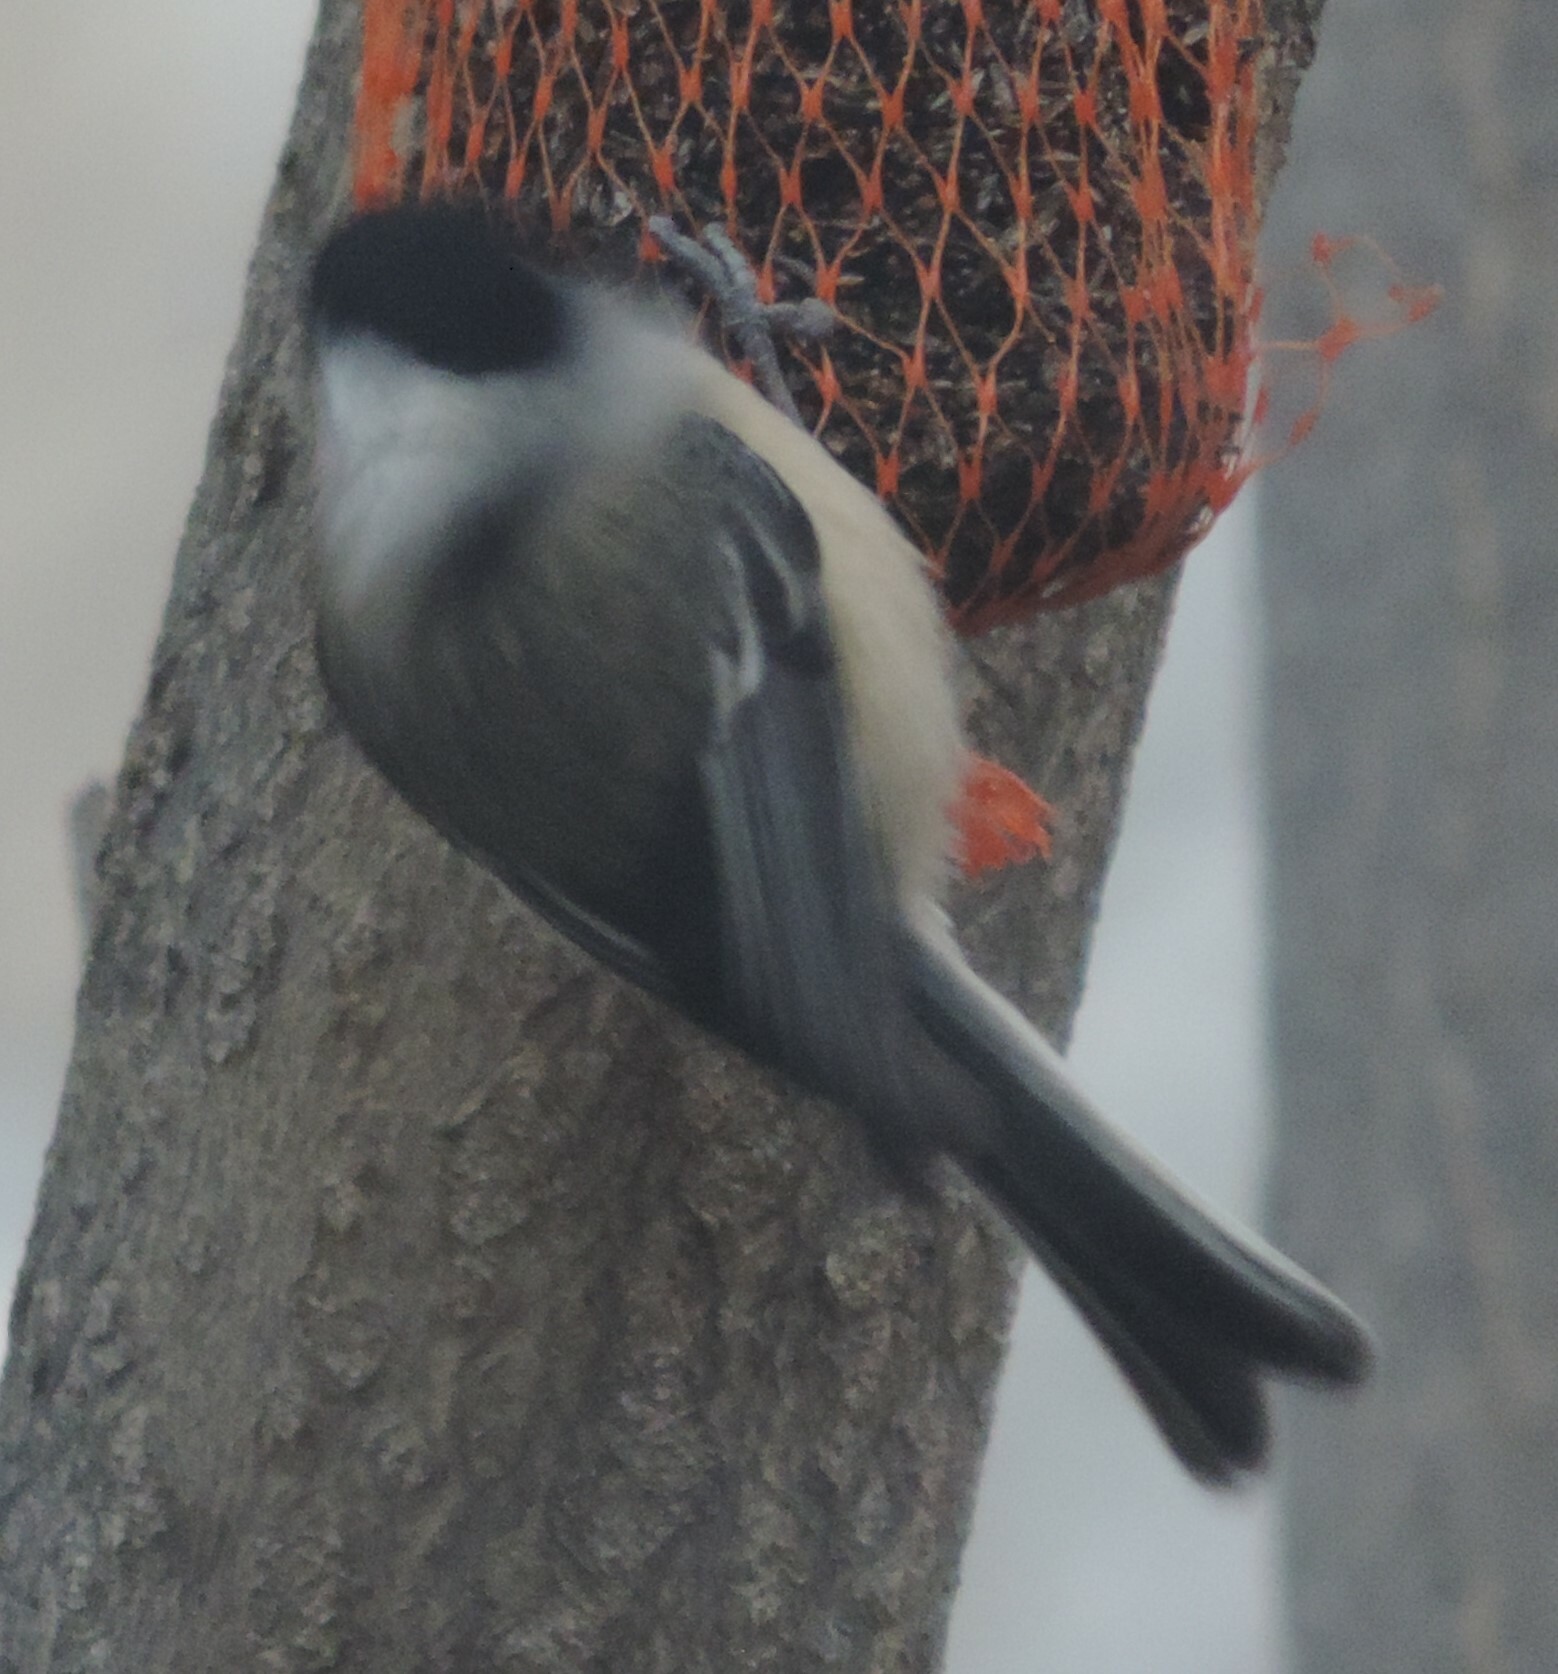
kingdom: Animalia
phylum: Chordata
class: Aves
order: Passeriformes
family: Paridae
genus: Poecile
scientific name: Poecile atricapillus
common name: Black-capped chickadee
